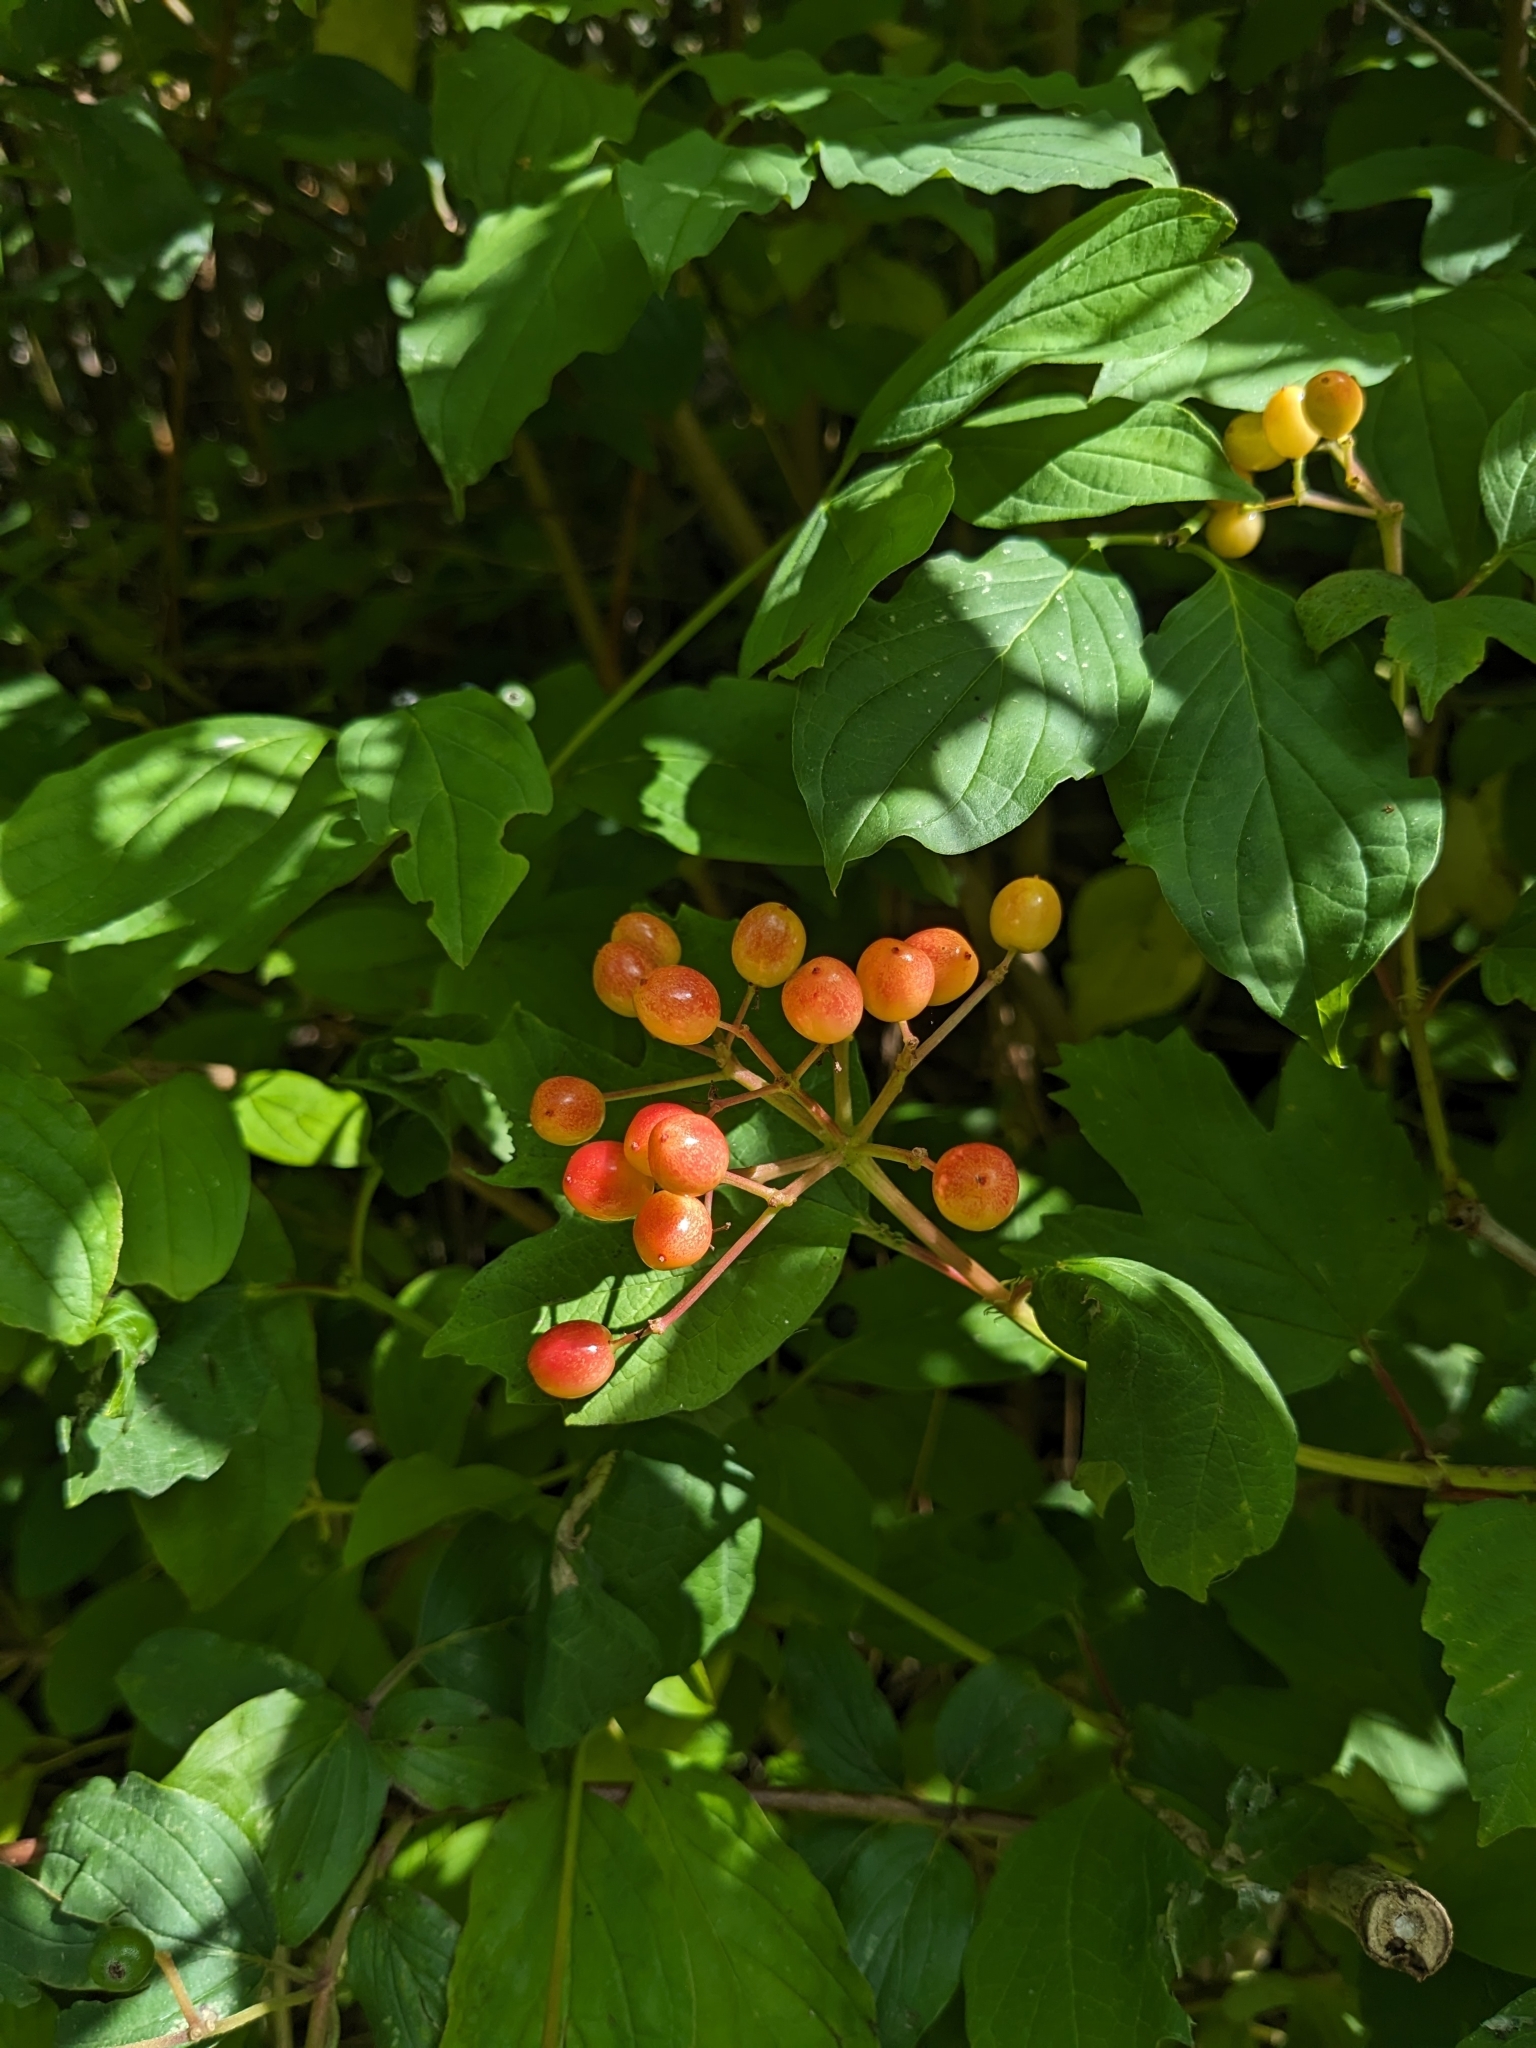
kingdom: Plantae
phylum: Tracheophyta
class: Magnoliopsida
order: Dipsacales
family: Viburnaceae
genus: Viburnum
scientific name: Viburnum opulus
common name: Guelder-rose
